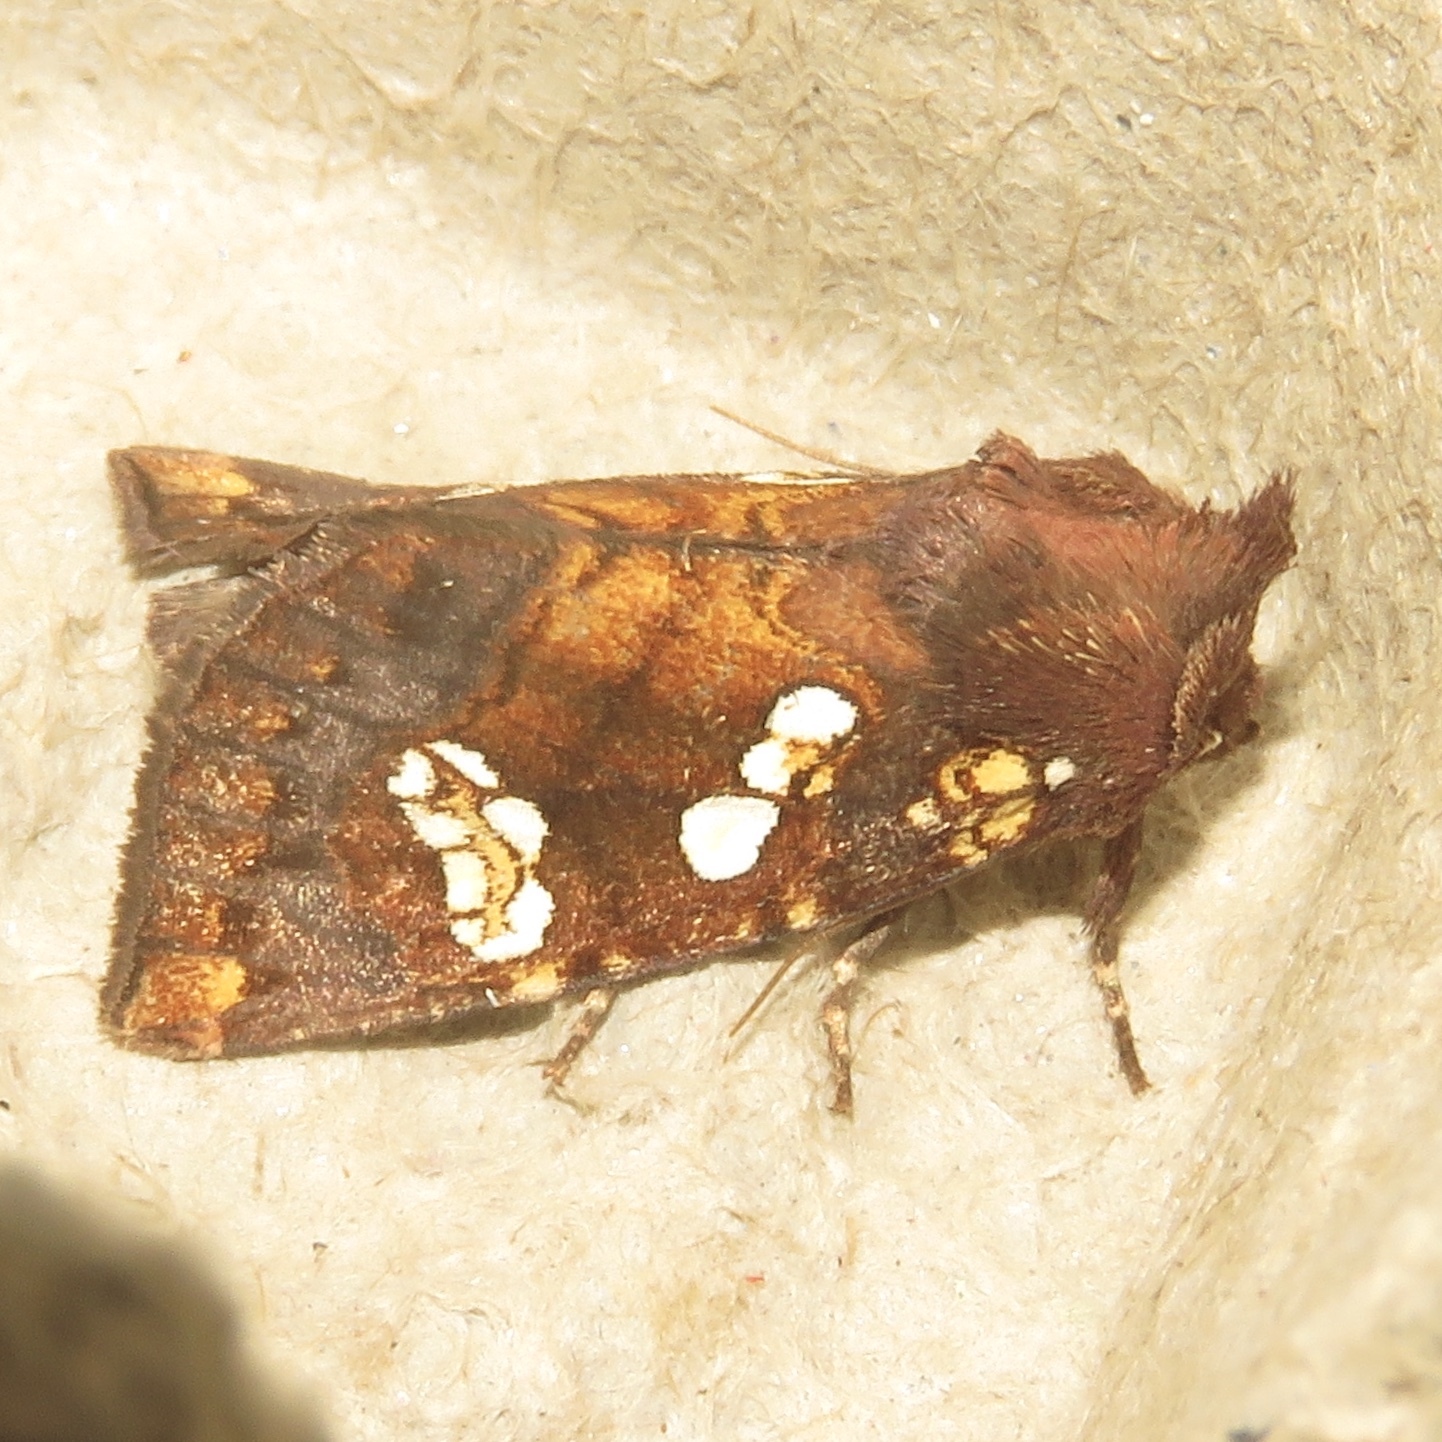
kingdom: Animalia
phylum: Arthropoda
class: Insecta
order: Lepidoptera
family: Noctuidae
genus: Papaipema
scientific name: Papaipema nepheleptena
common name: Turtle head borer moth
